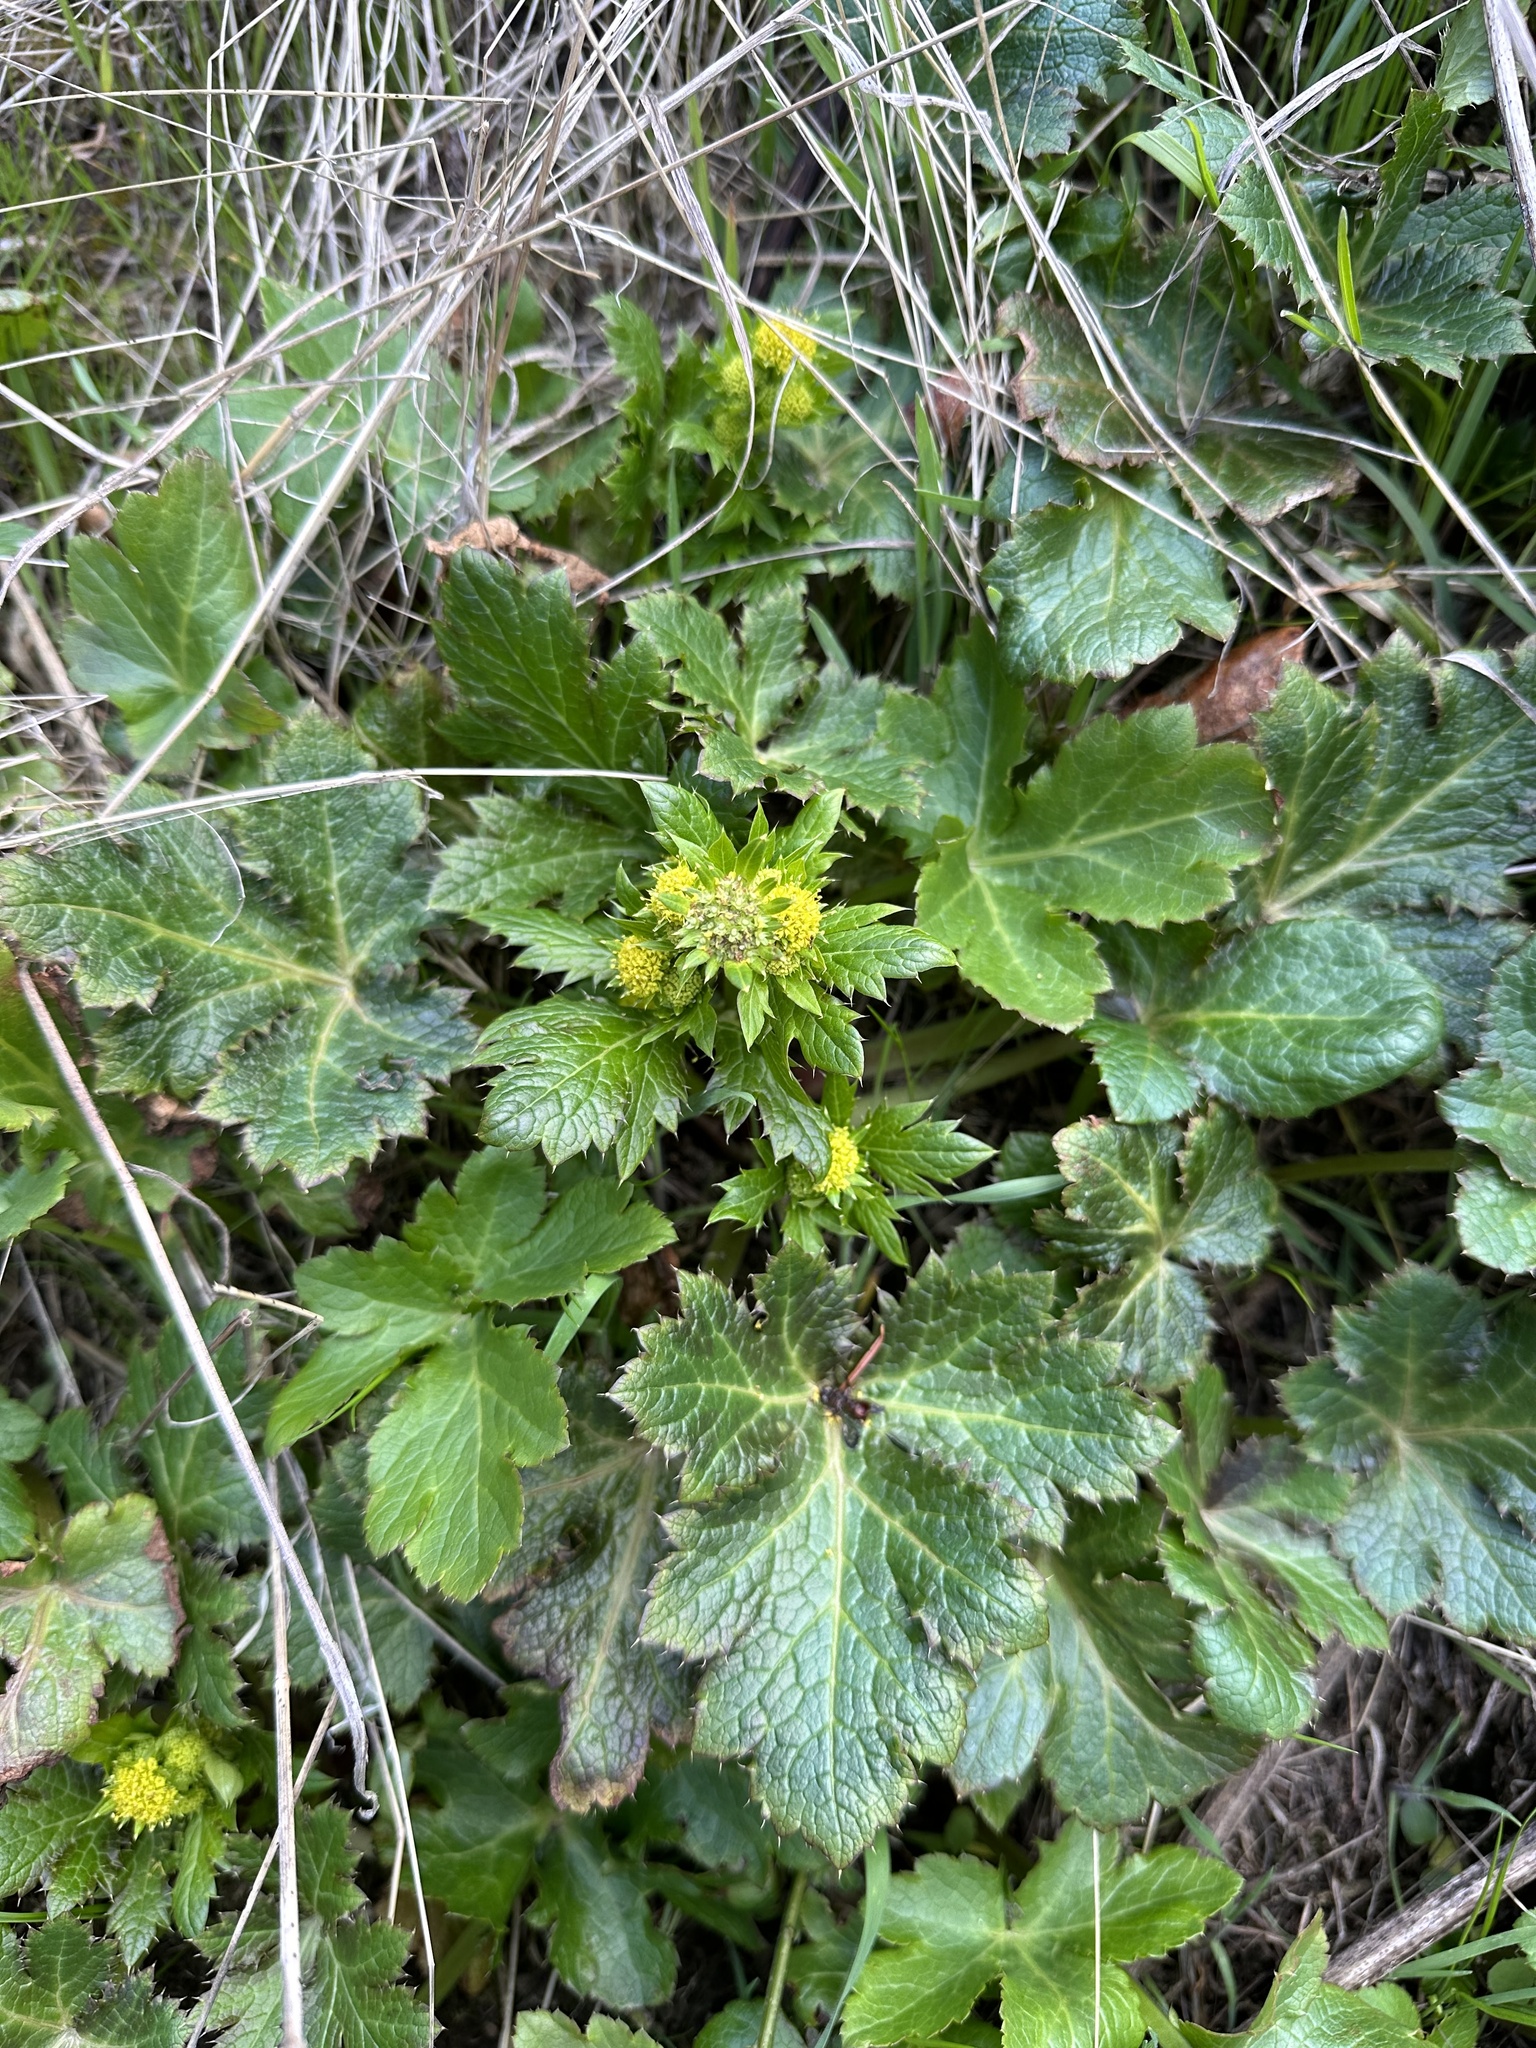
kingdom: Plantae
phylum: Tracheophyta
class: Magnoliopsida
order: Apiales
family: Apiaceae
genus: Sanicula
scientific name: Sanicula crassicaulis
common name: Western snakeroot
